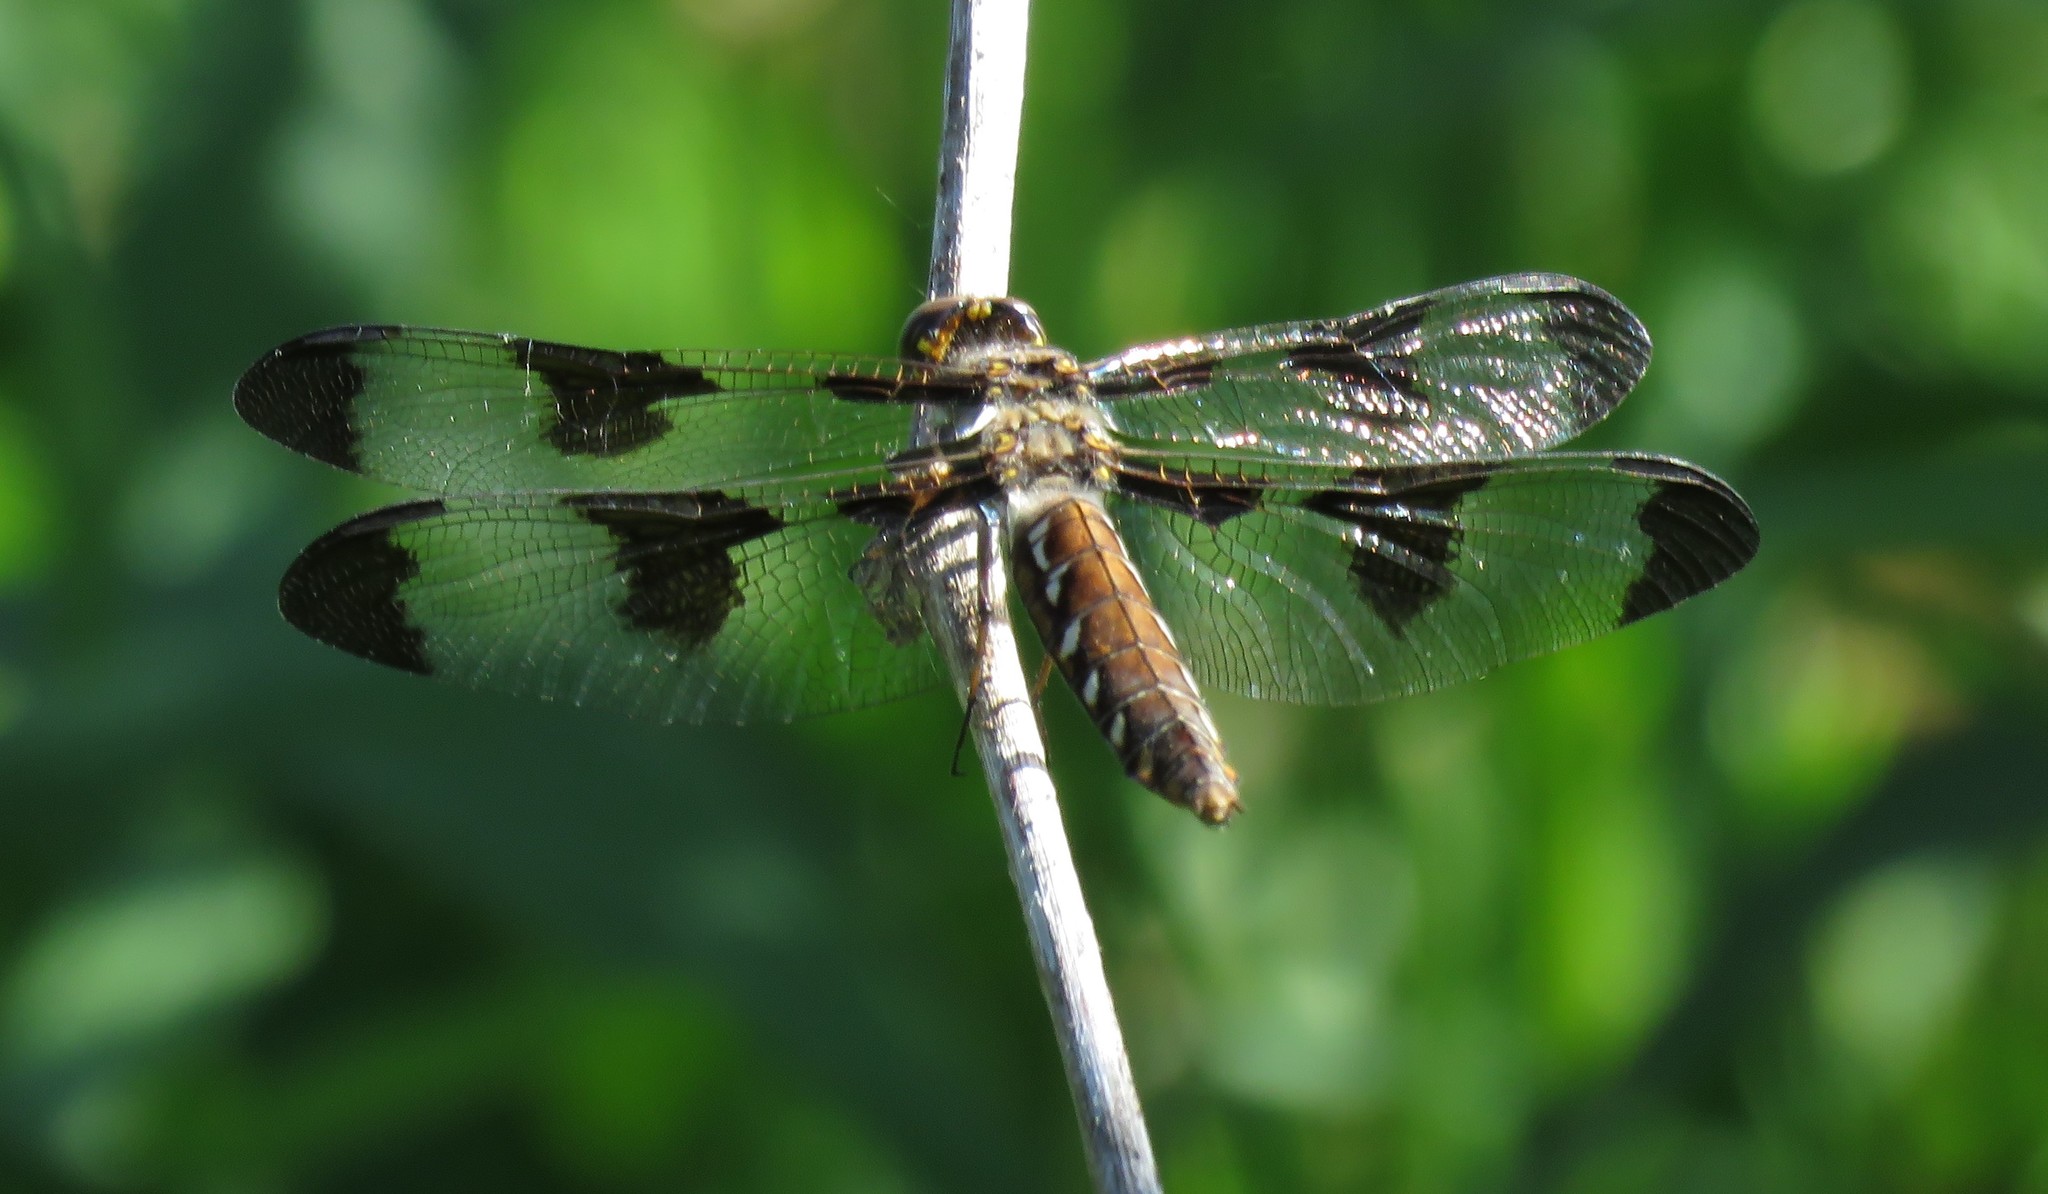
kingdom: Animalia
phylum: Arthropoda
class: Insecta
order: Odonata
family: Libellulidae
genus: Plathemis
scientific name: Plathemis lydia
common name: Common whitetail
